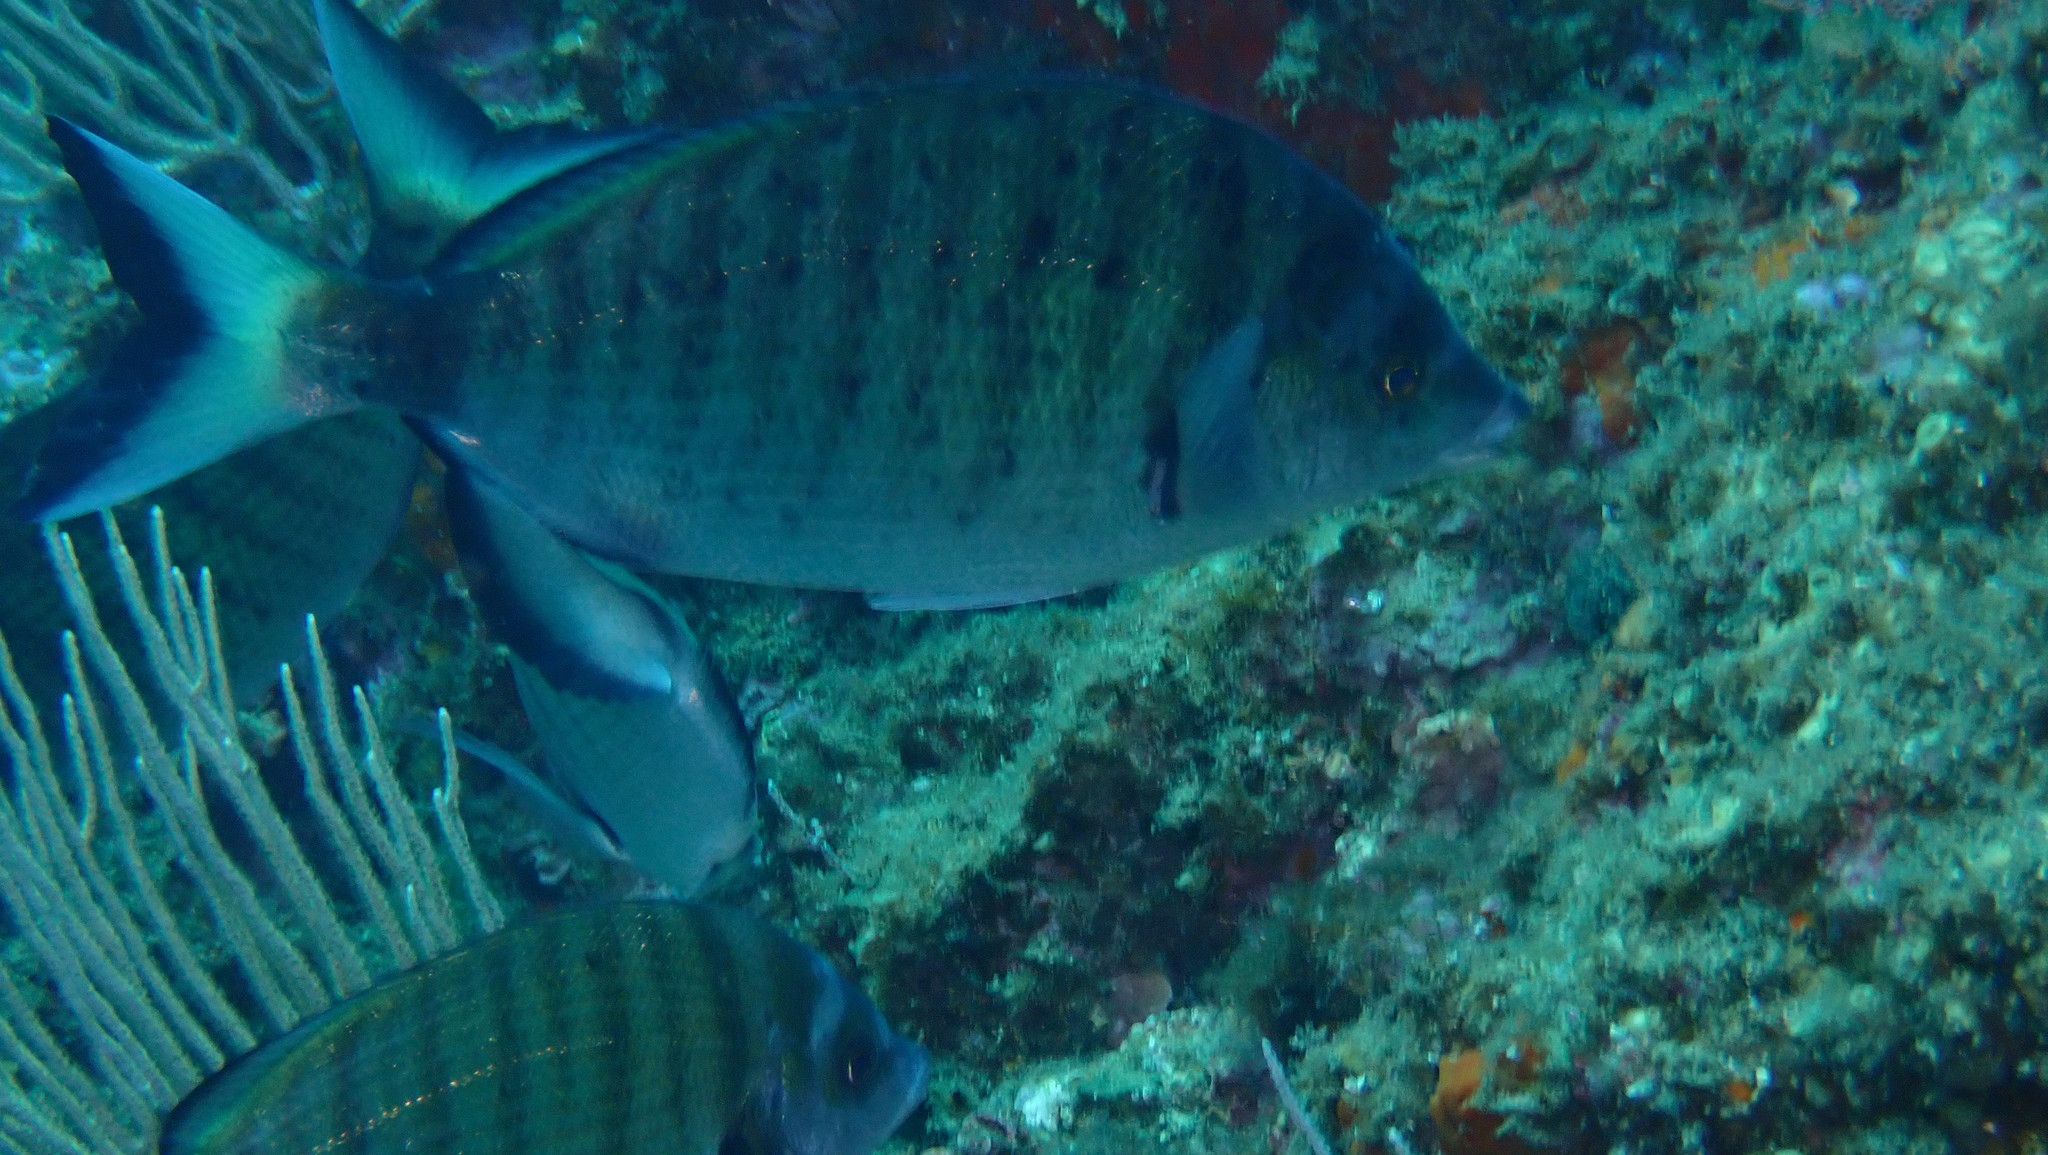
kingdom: Animalia
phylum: Chordata
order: Perciformes
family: Sparidae
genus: Diplodus
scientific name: Diplodus puntazzo
